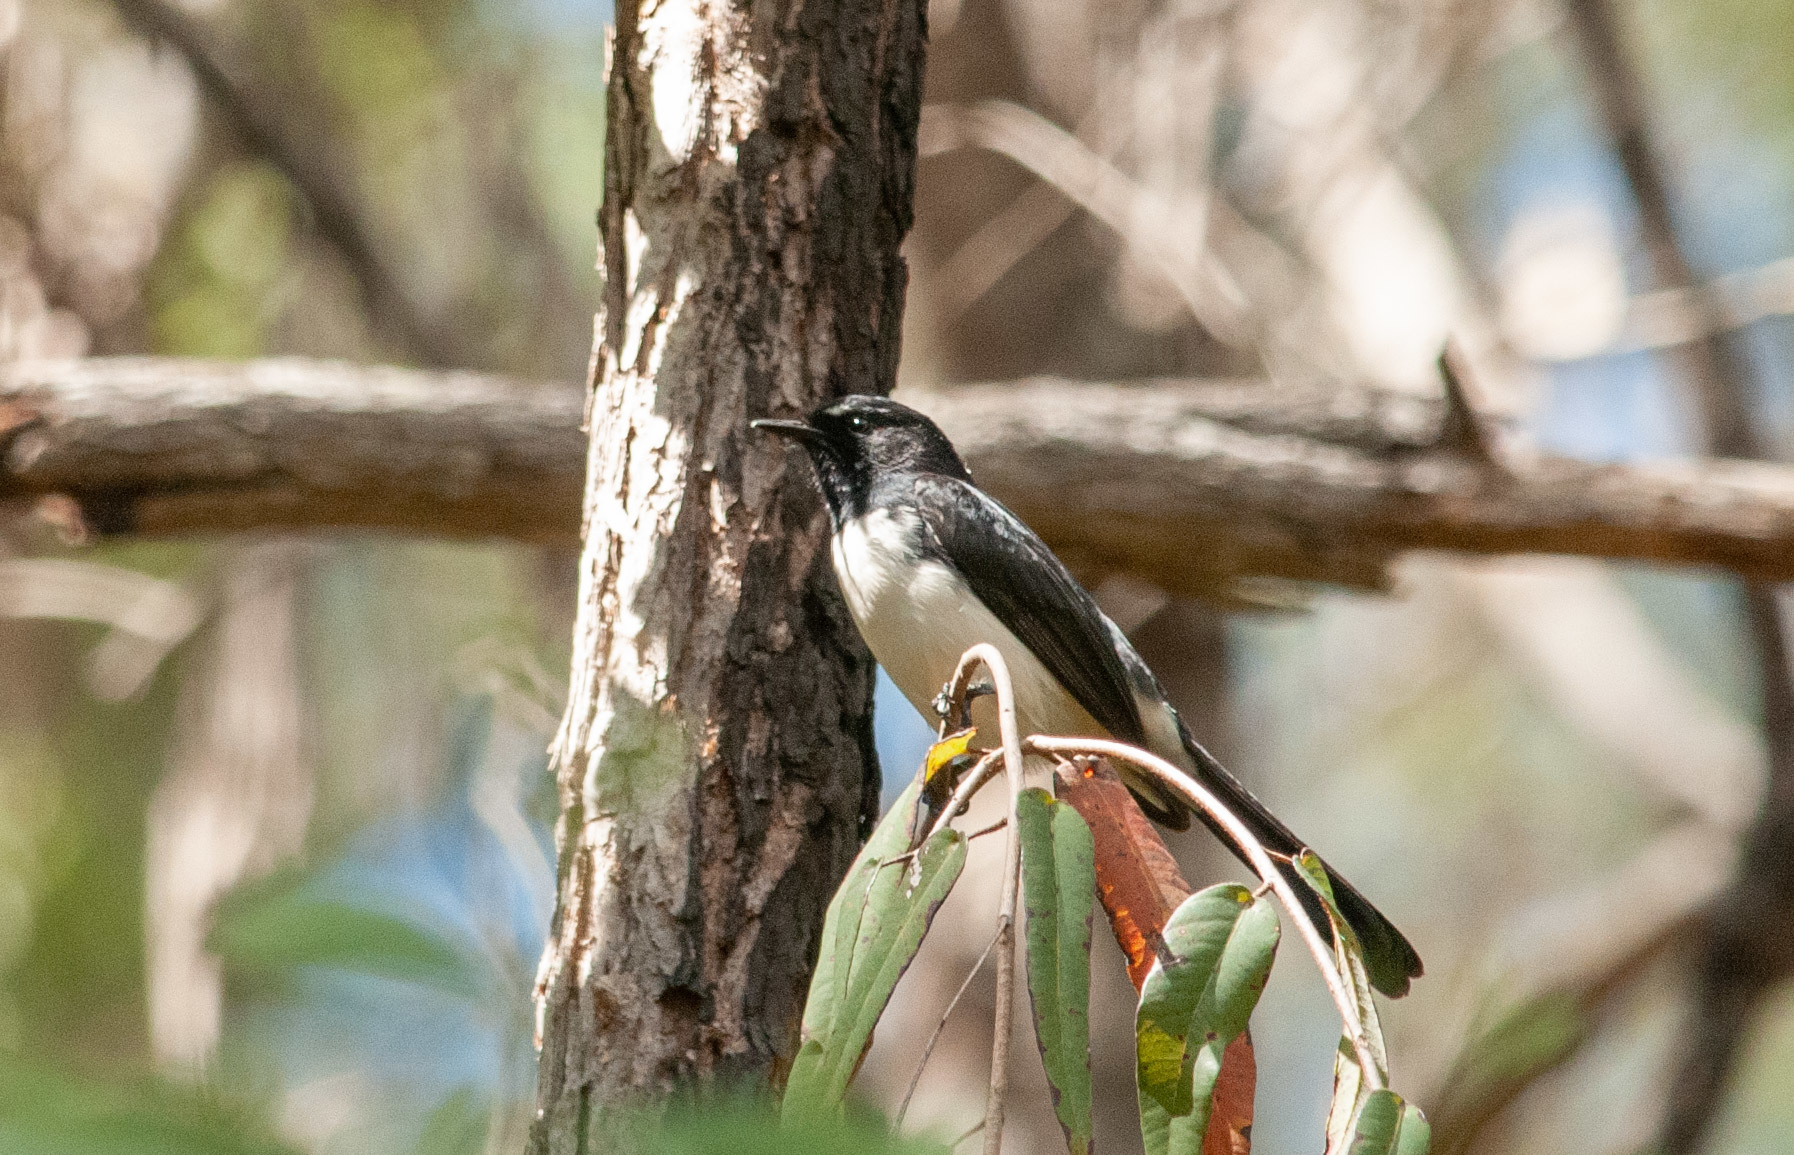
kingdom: Animalia
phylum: Chordata
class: Aves
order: Passeriformes
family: Rhipiduridae
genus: Rhipidura
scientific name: Rhipidura leucophrys
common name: Willie wagtail
